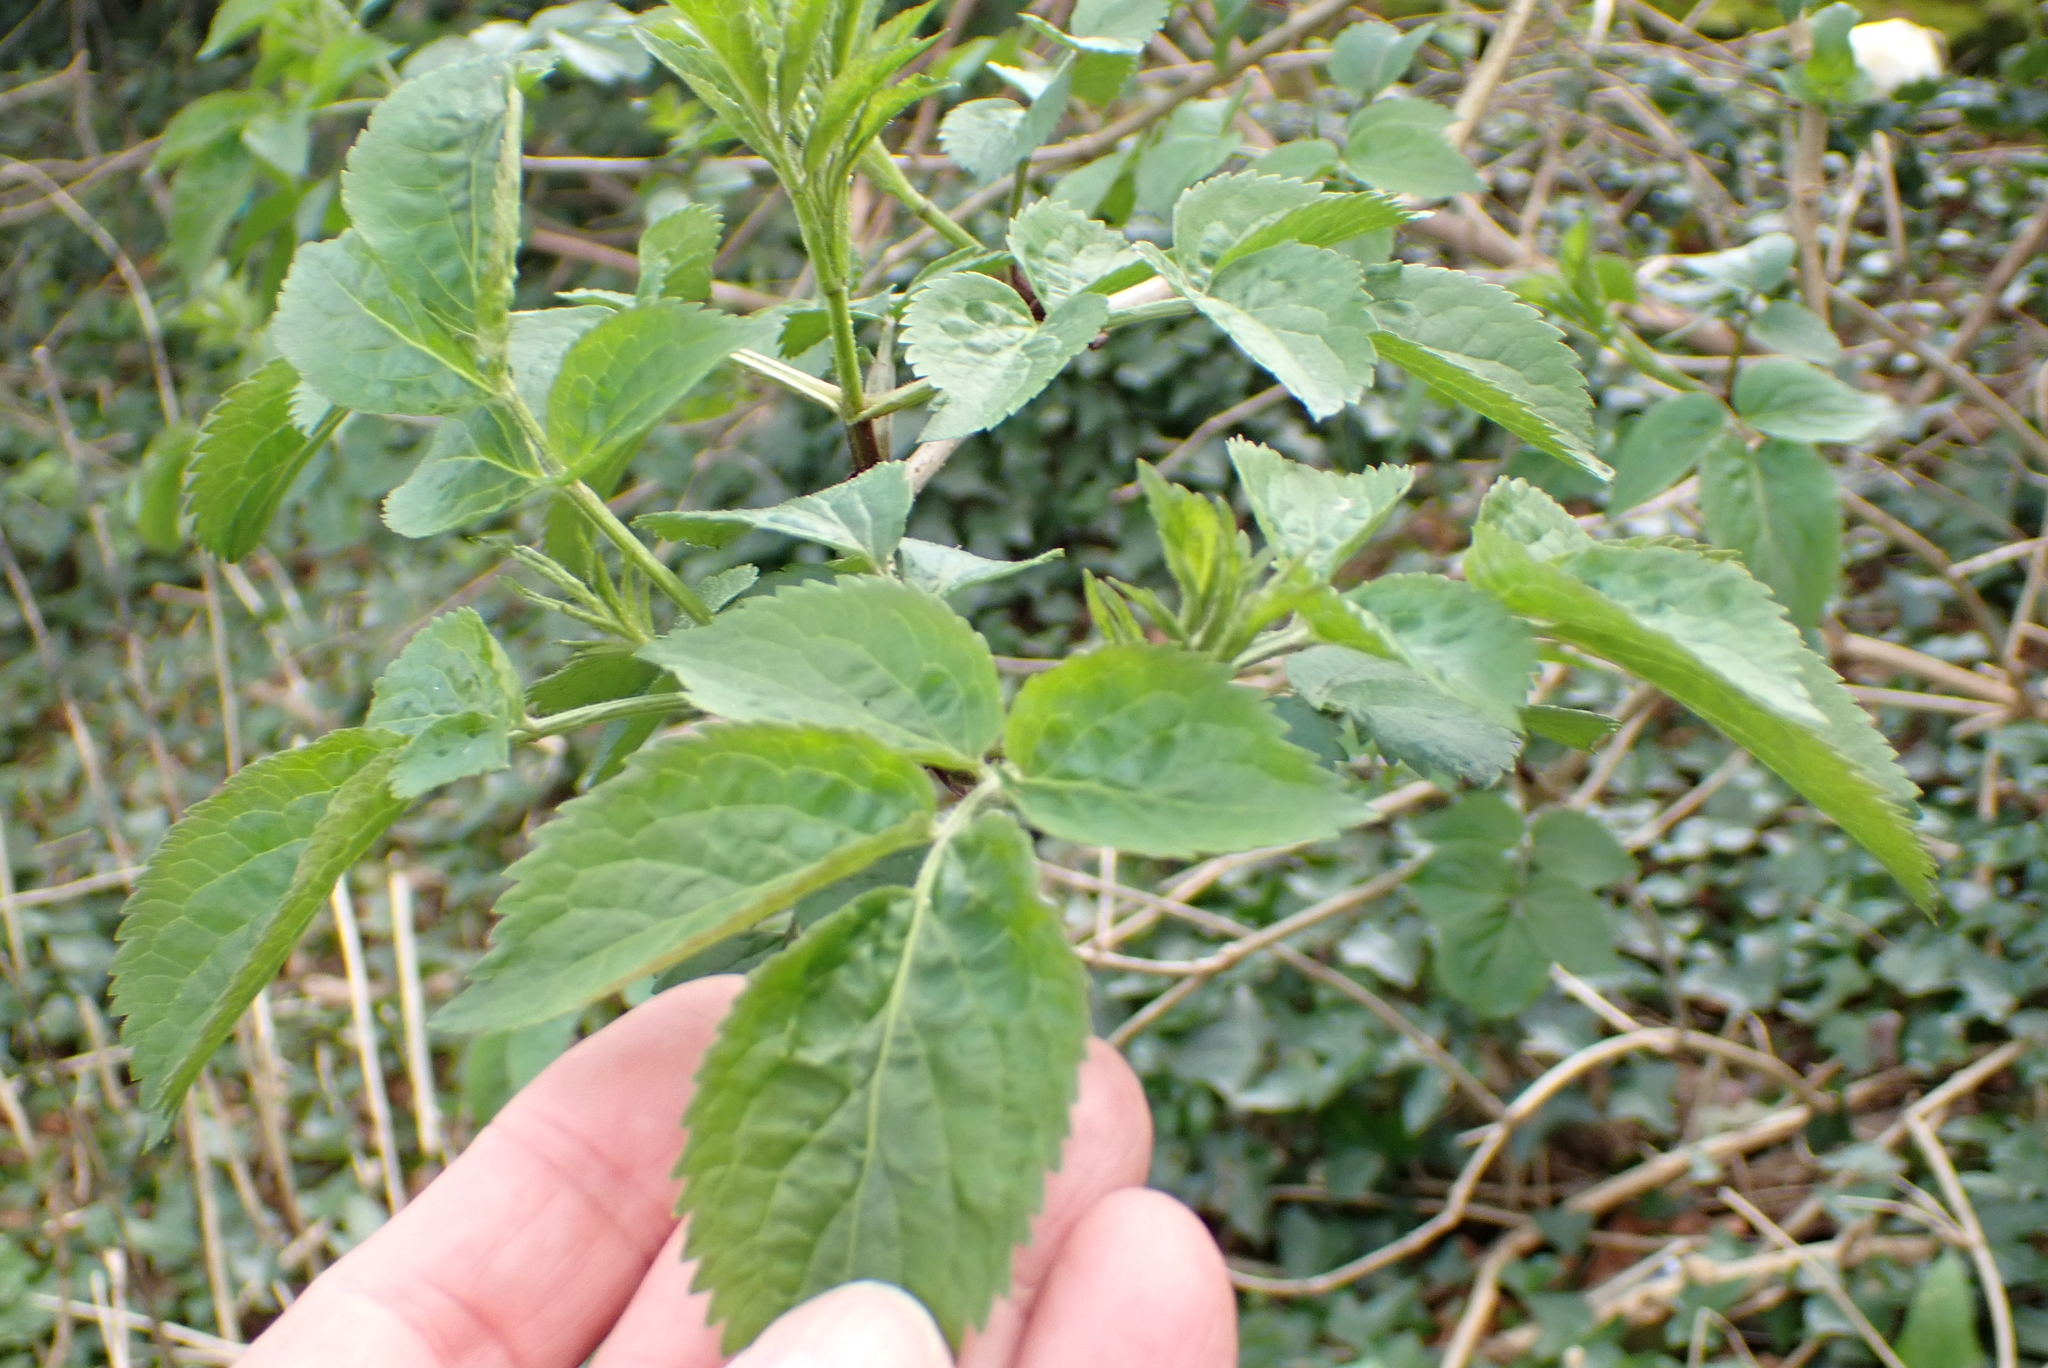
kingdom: Plantae
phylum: Tracheophyta
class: Magnoliopsida
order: Dipsacales
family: Viburnaceae
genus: Sambucus
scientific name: Sambucus nigra
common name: Elder
